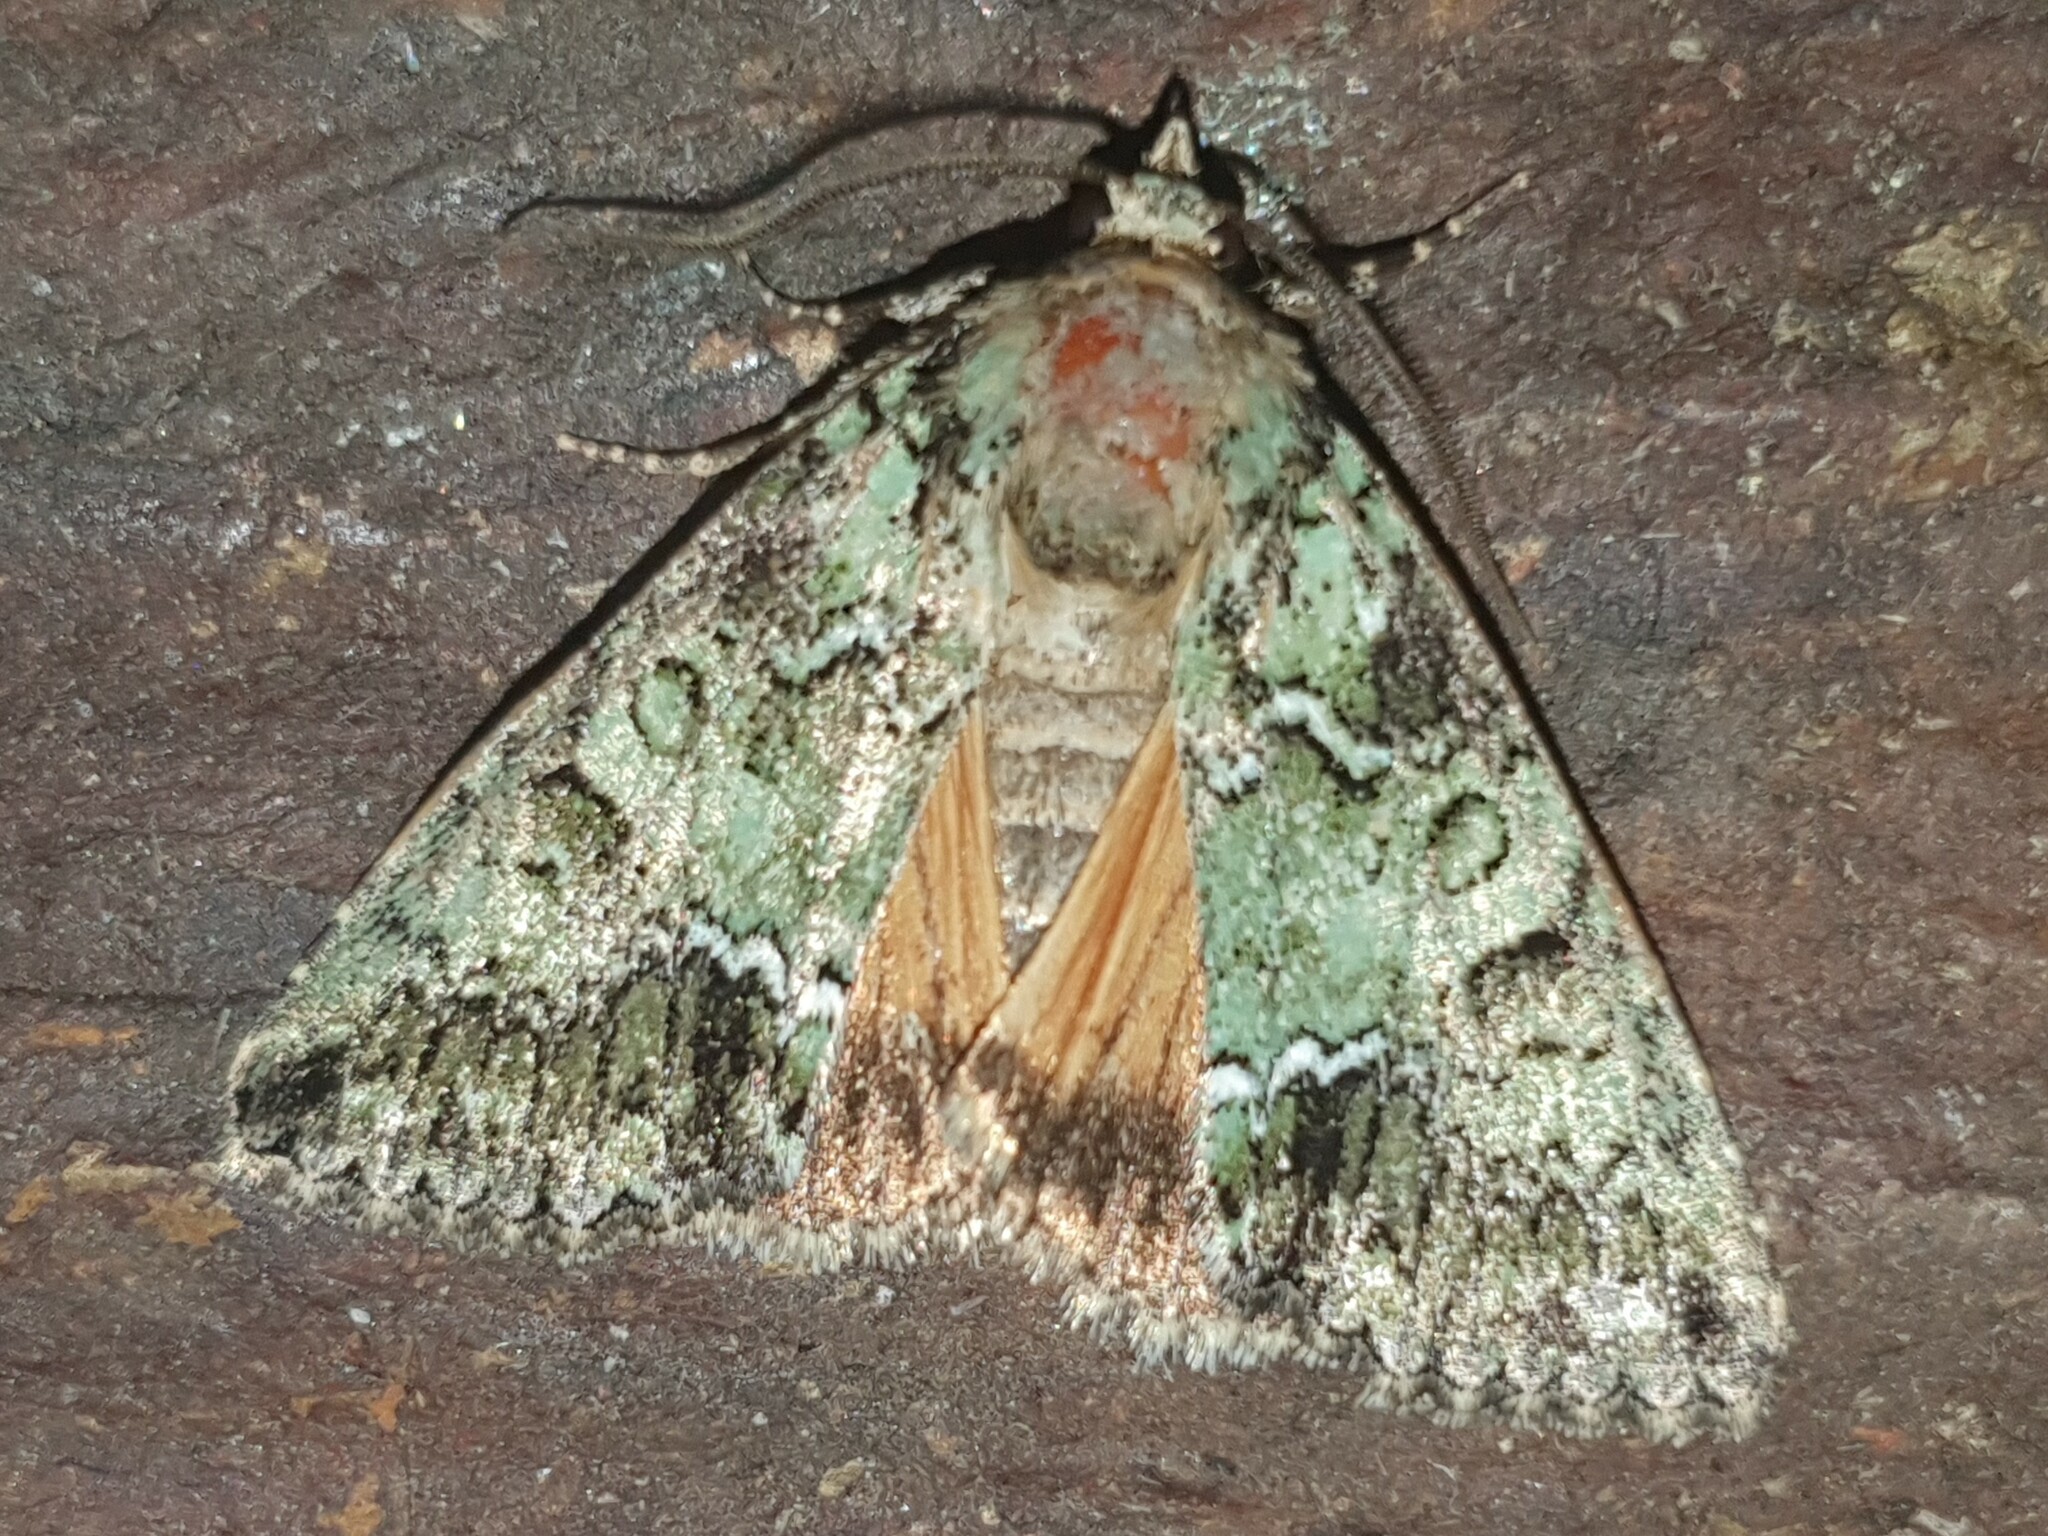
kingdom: Animalia
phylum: Arthropoda
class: Insecta
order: Lepidoptera
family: Noctuidae
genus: Polyphaenis
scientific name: Polyphaenis sericata
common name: Guernsey underwing
